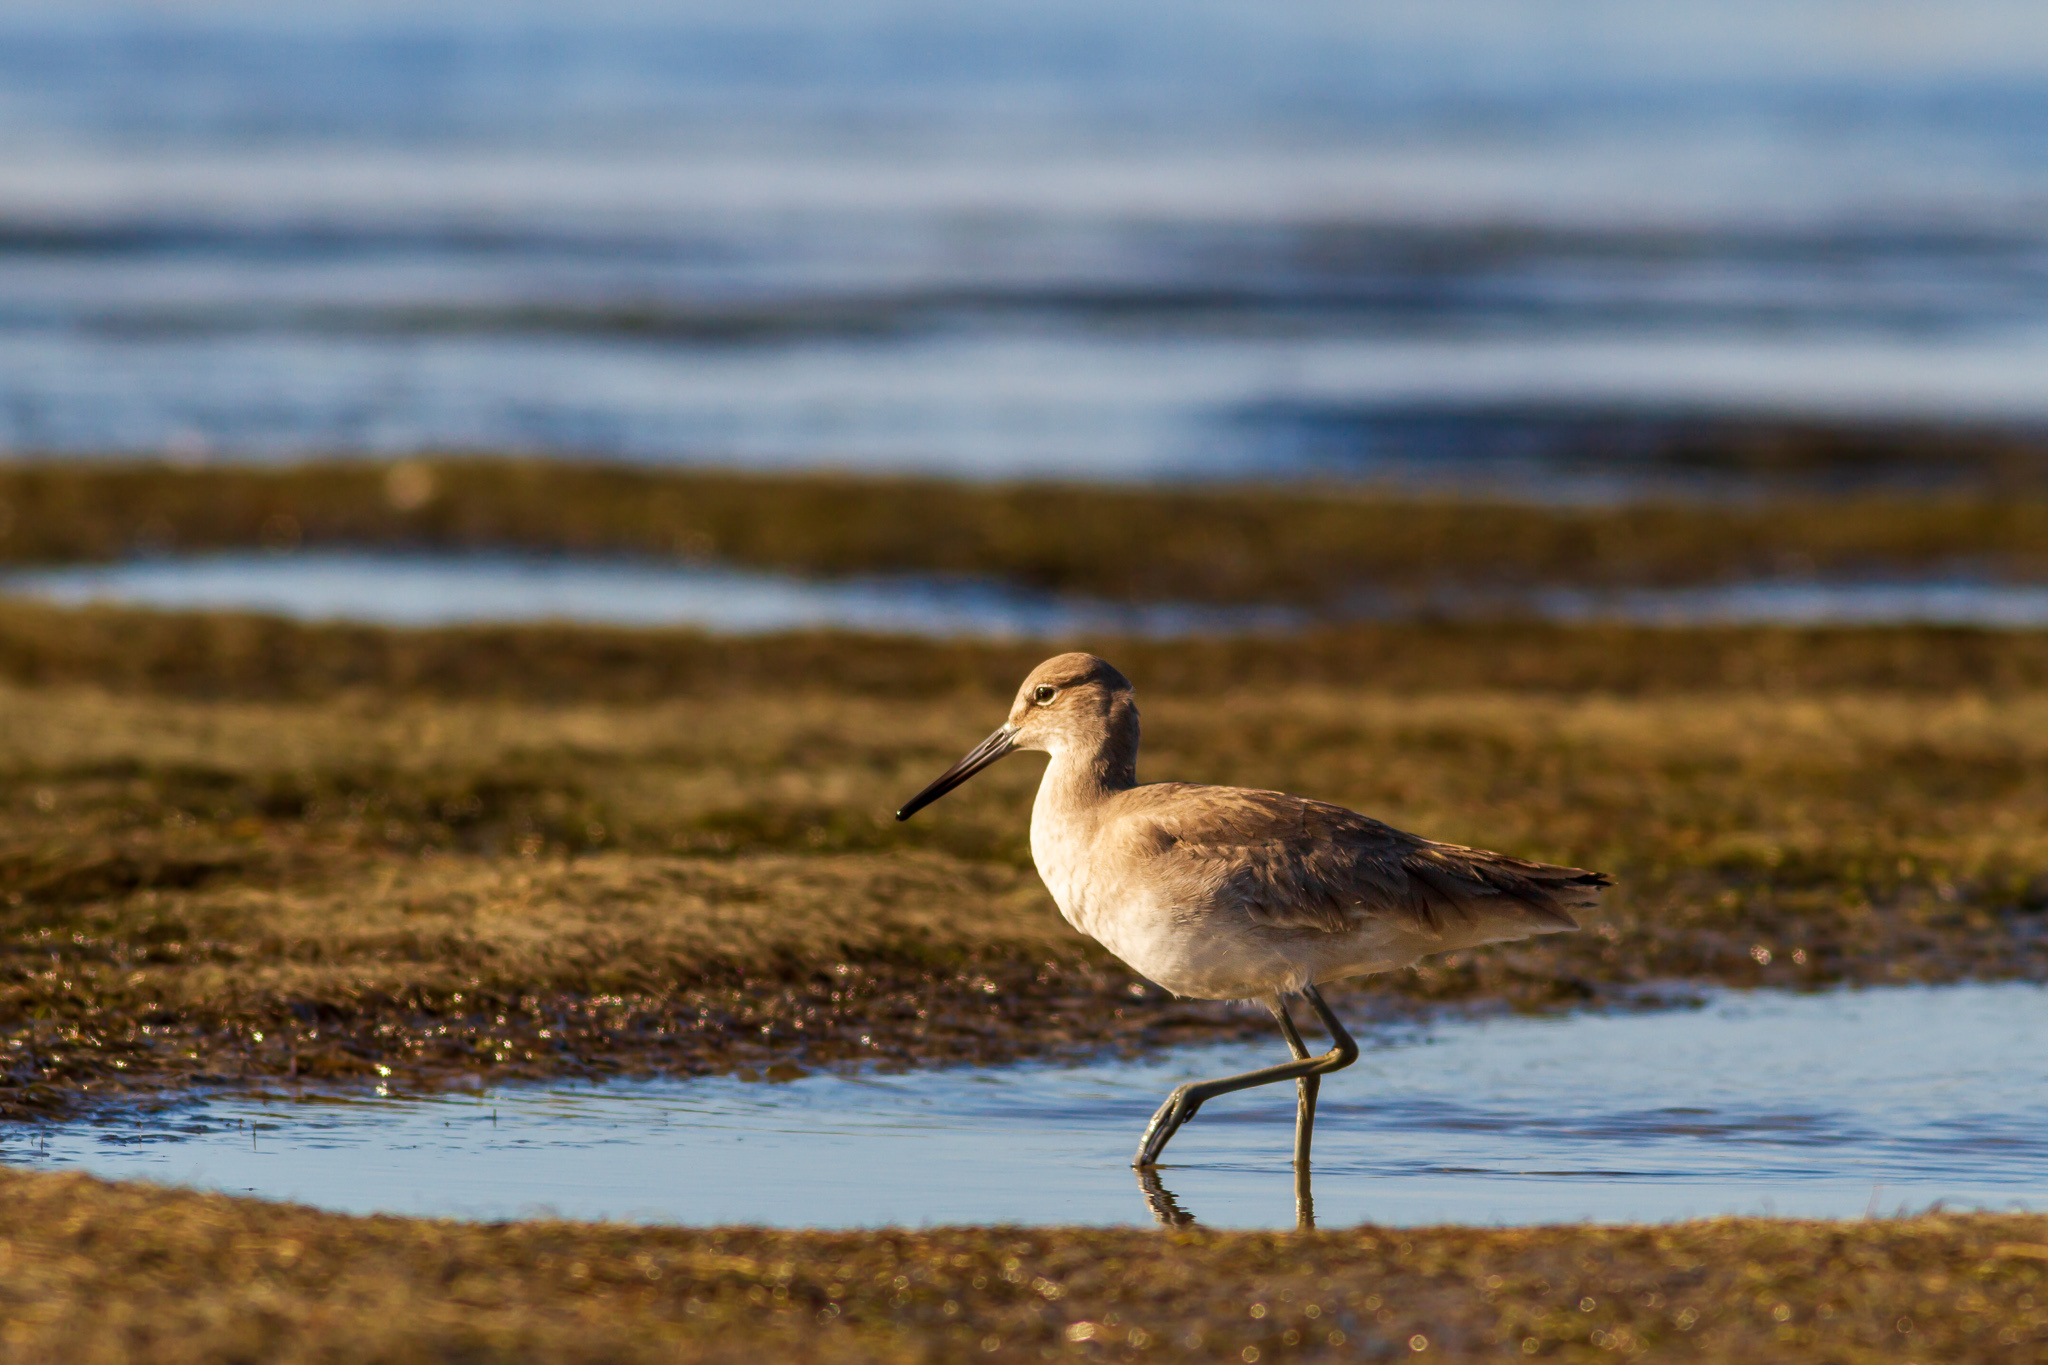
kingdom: Animalia
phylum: Chordata
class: Aves
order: Charadriiformes
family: Scolopacidae
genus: Tringa
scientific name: Tringa semipalmata
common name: Willet
